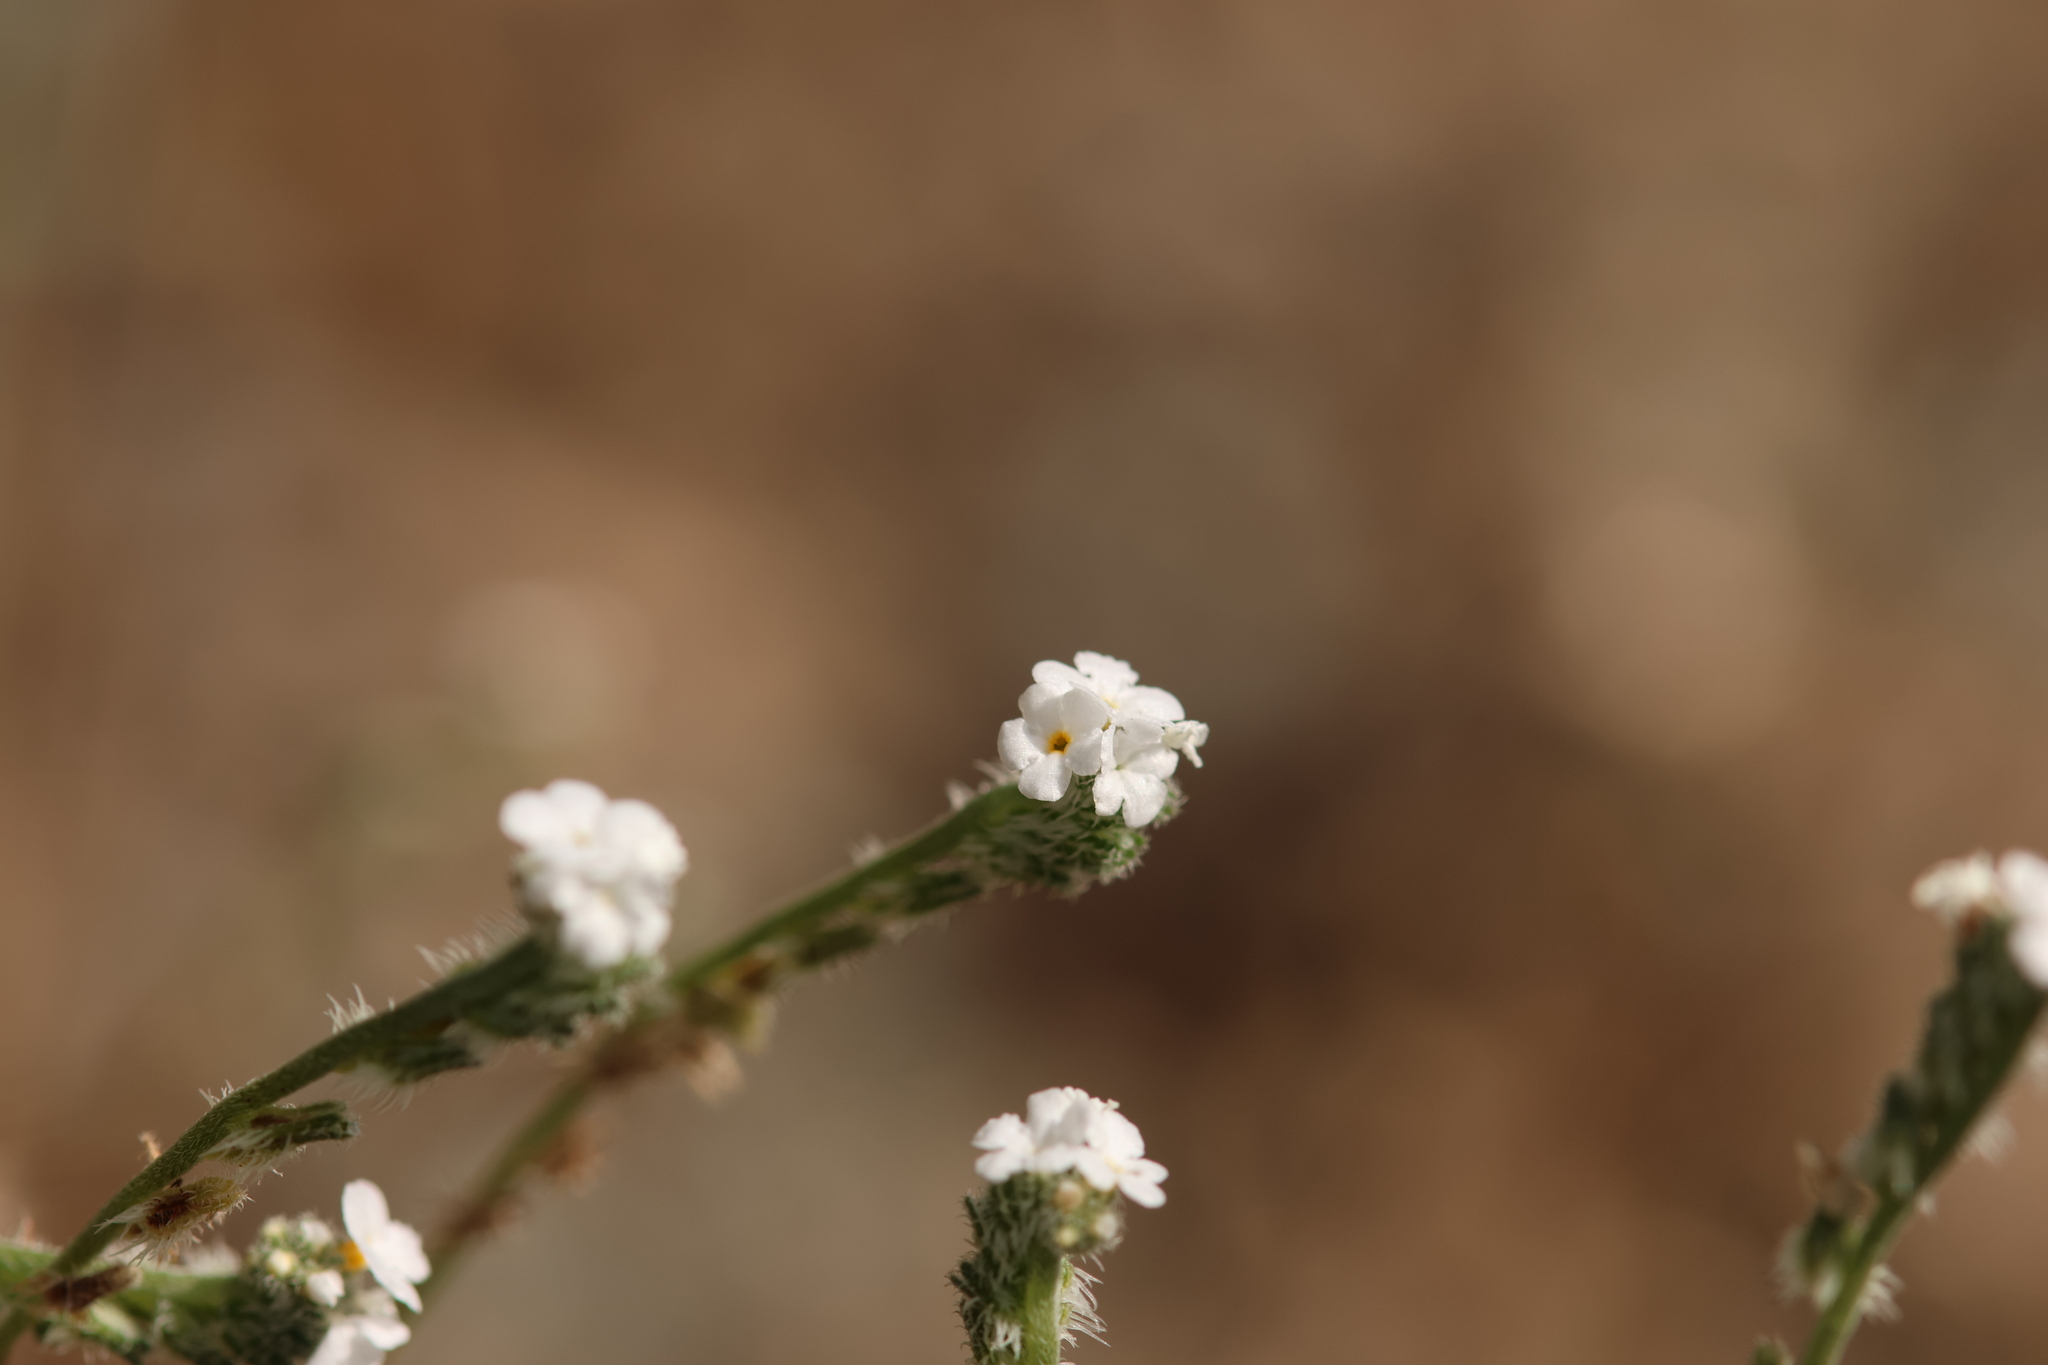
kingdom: Plantae
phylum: Tracheophyta
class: Magnoliopsida
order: Boraginales
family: Boraginaceae
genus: Cryptantha
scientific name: Cryptantha flaccida
